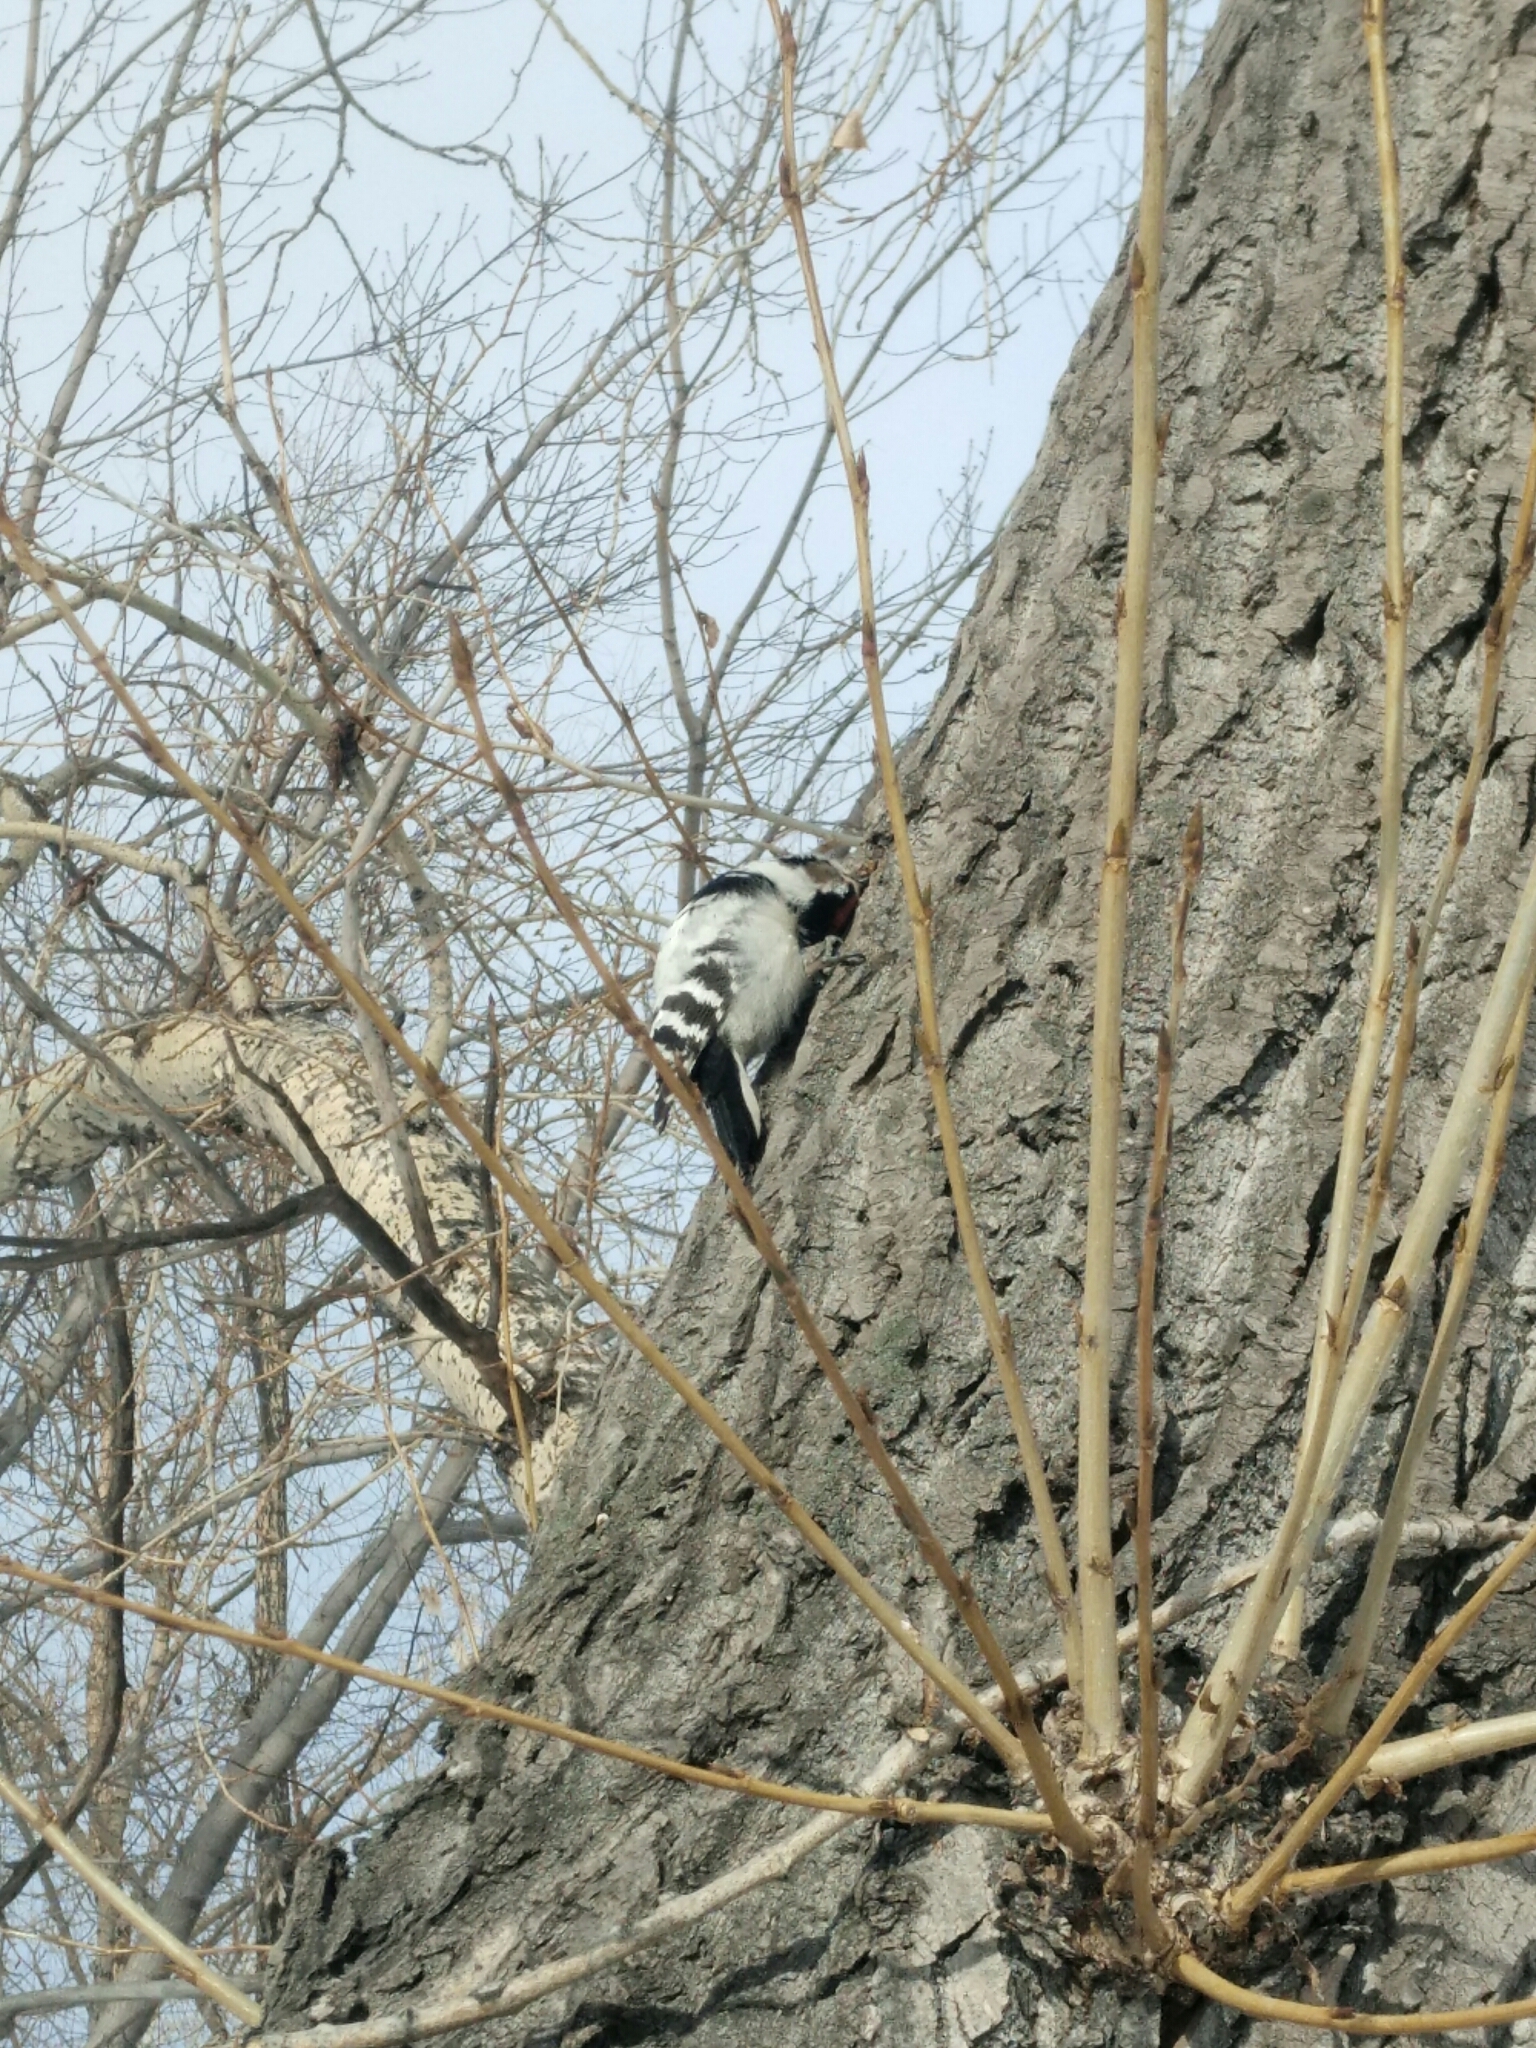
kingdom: Animalia
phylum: Chordata
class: Aves
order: Piciformes
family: Picidae
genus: Dryobates
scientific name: Dryobates minor
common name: Lesser spotted woodpecker
